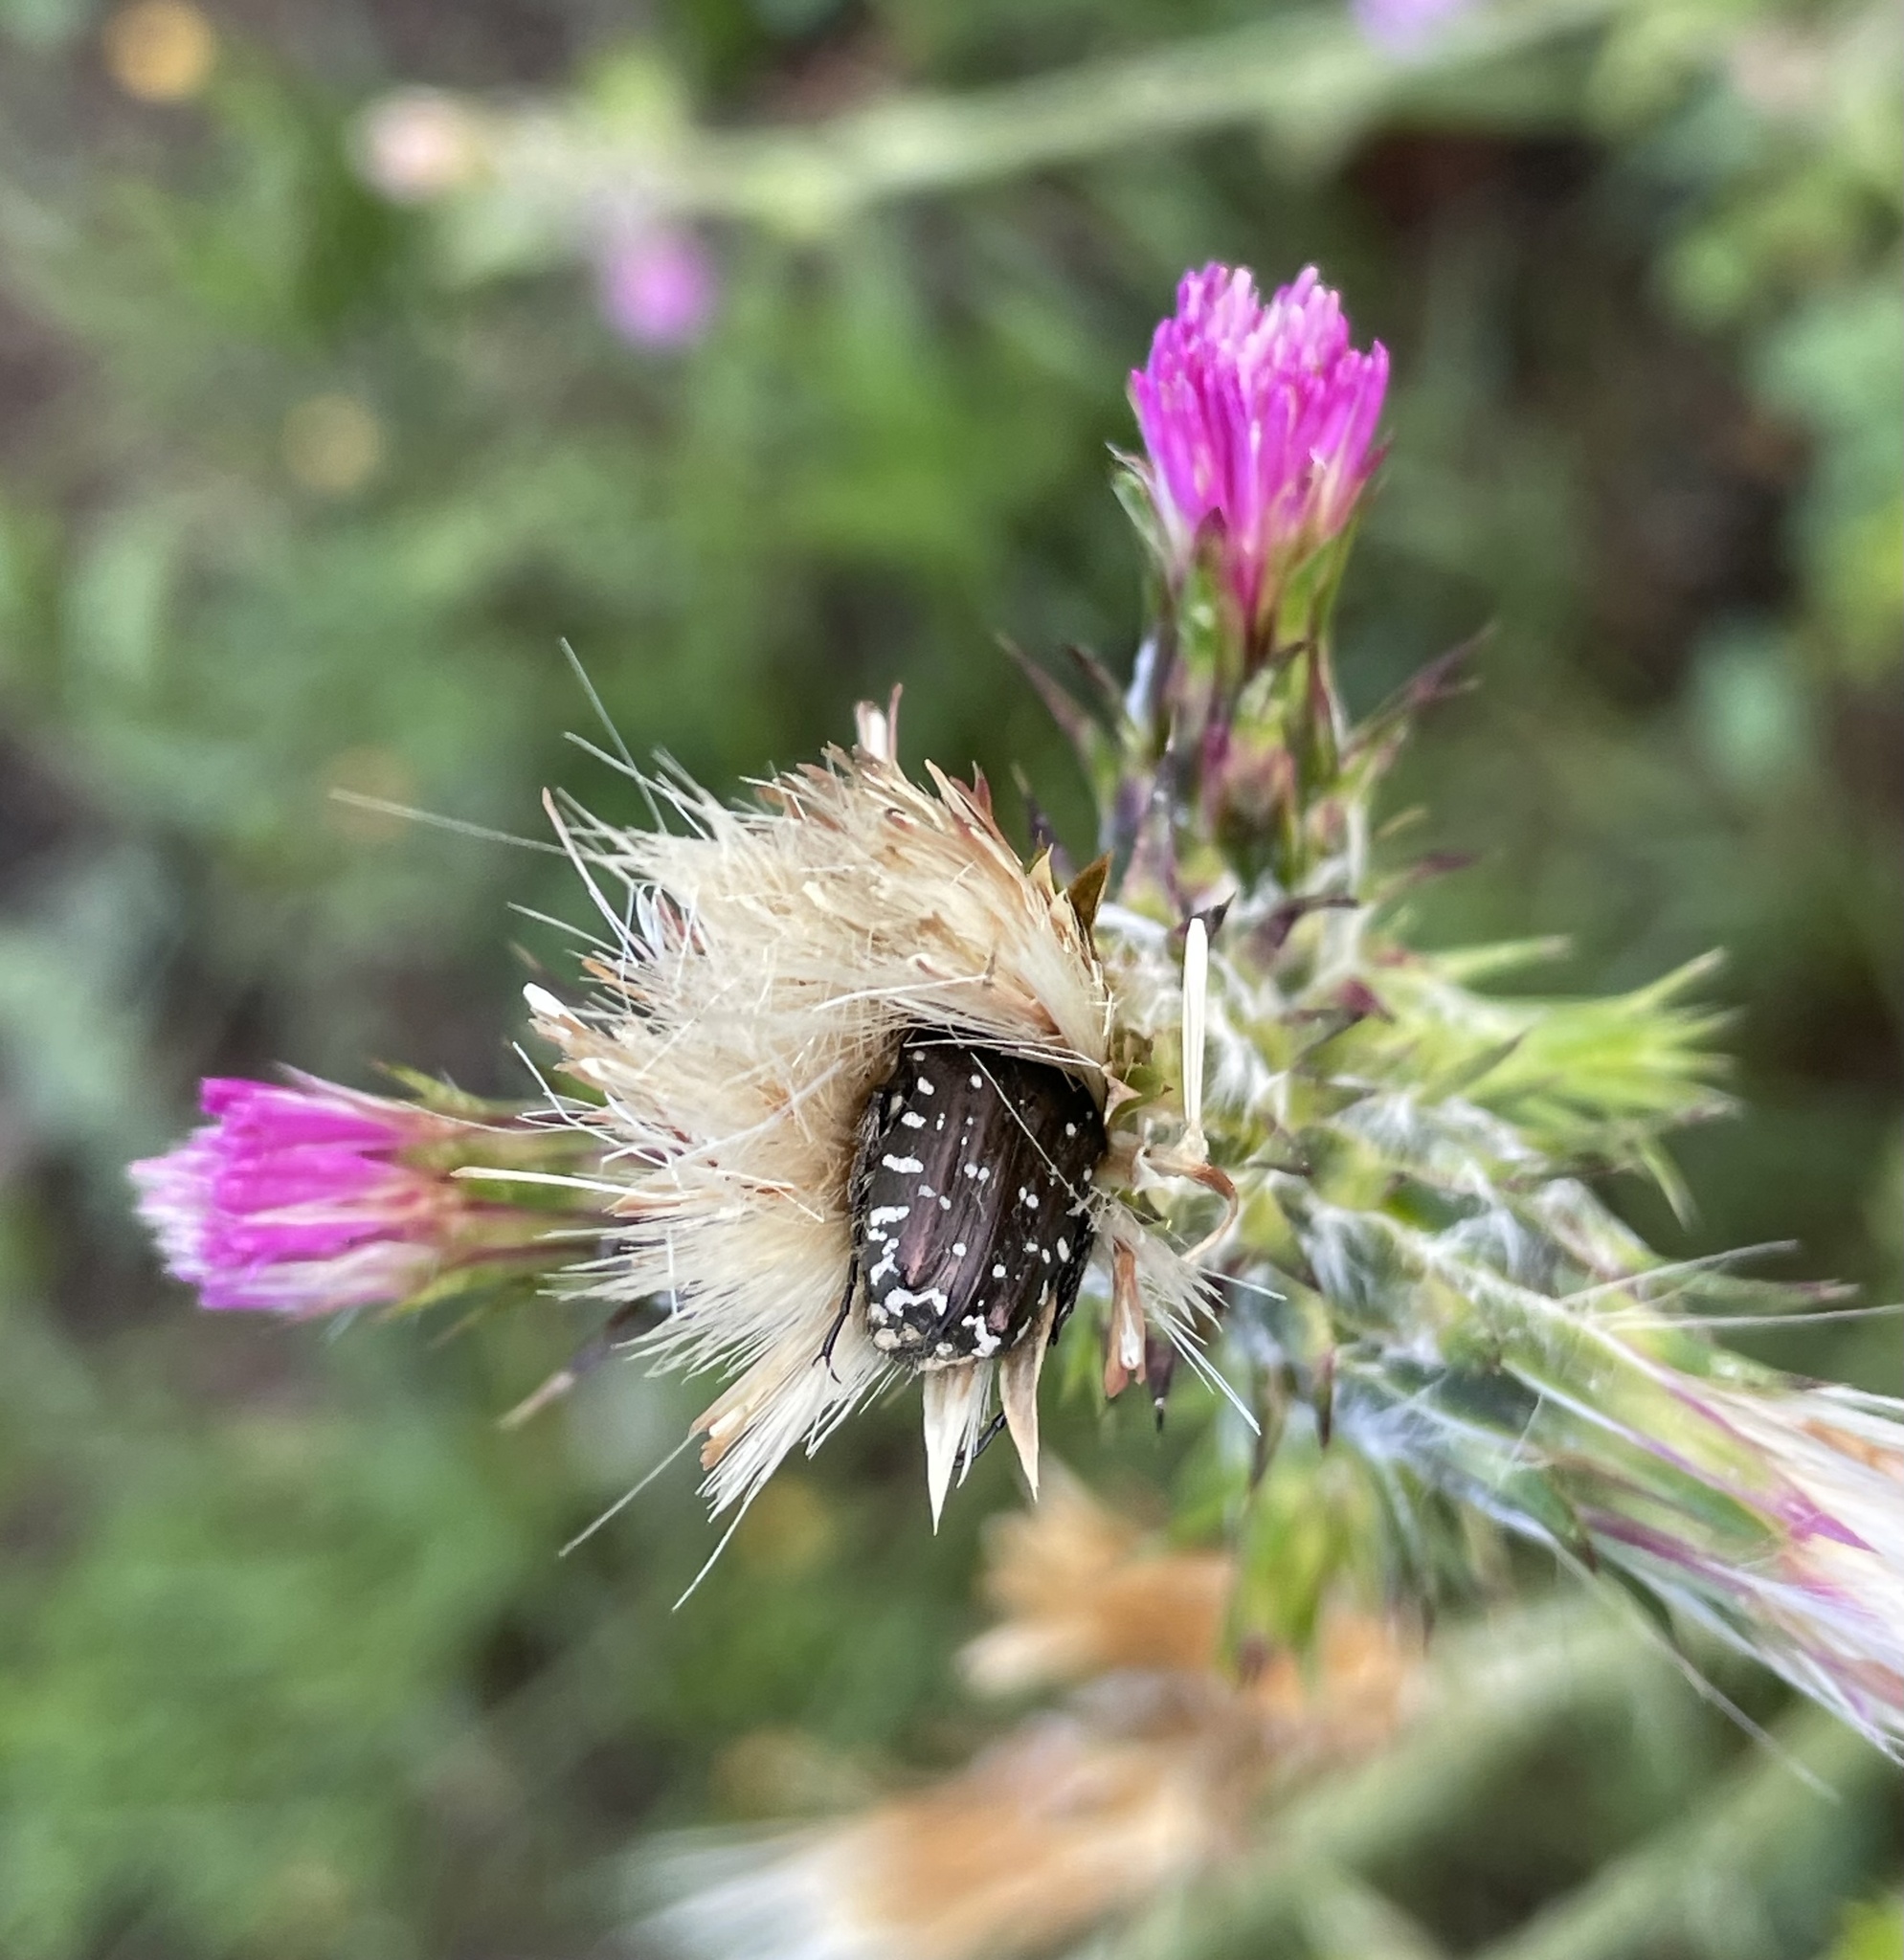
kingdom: Animalia
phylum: Arthropoda
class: Insecta
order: Coleoptera
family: Scarabaeidae
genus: Oxythyrea
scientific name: Oxythyrea funesta
